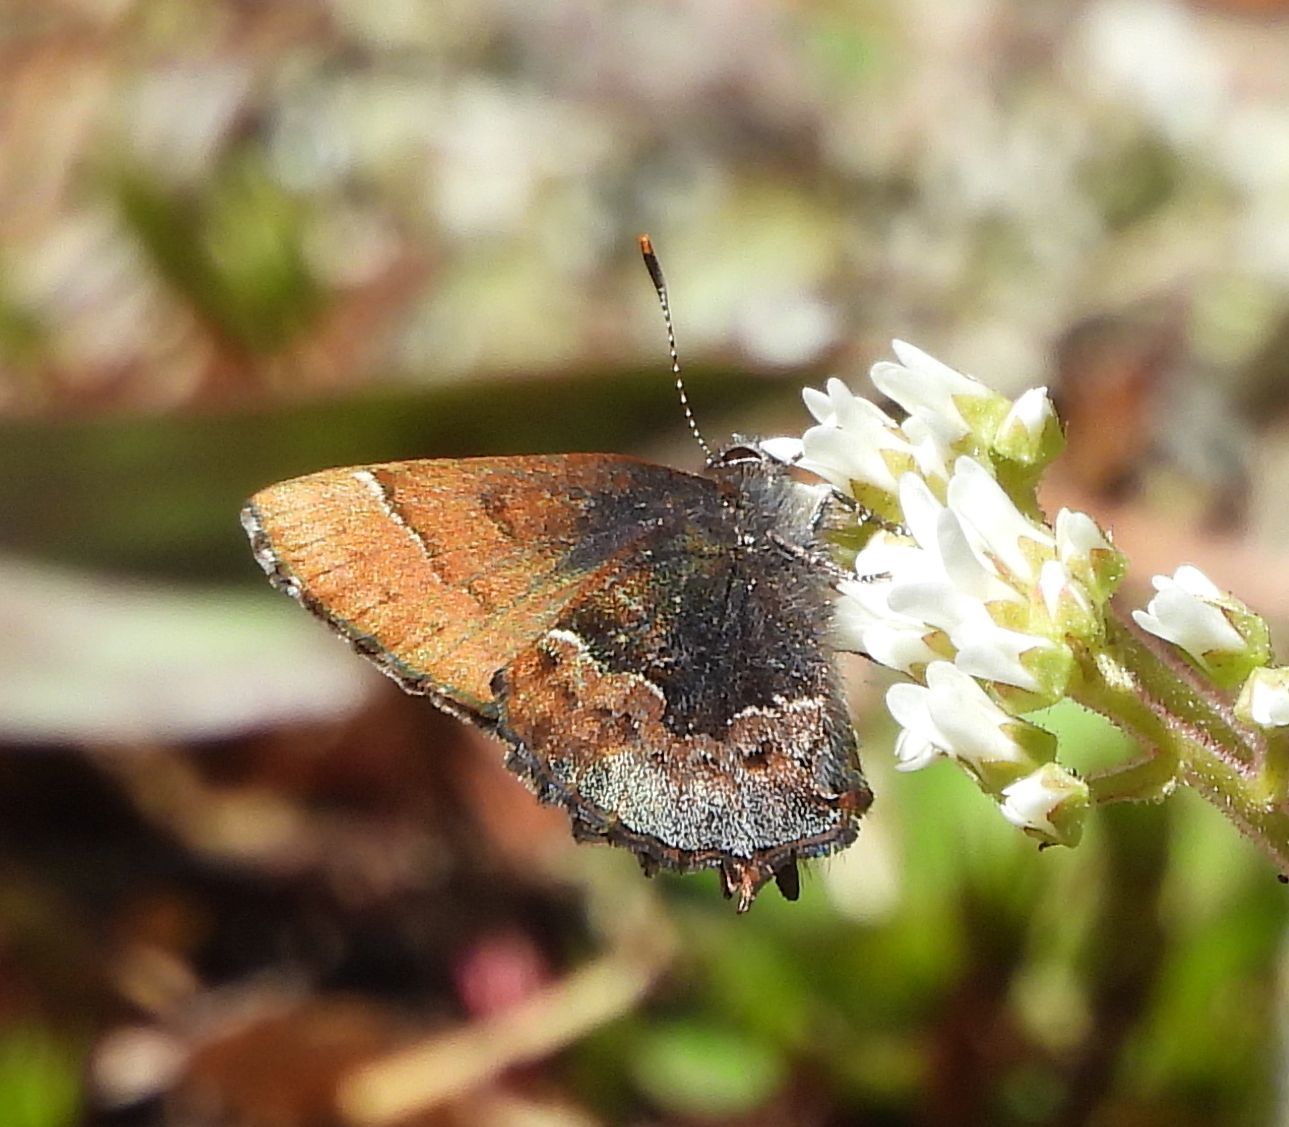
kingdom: Animalia
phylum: Arthropoda
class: Insecta
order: Lepidoptera
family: Lycaenidae
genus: Incisalia
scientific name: Incisalia henrici
